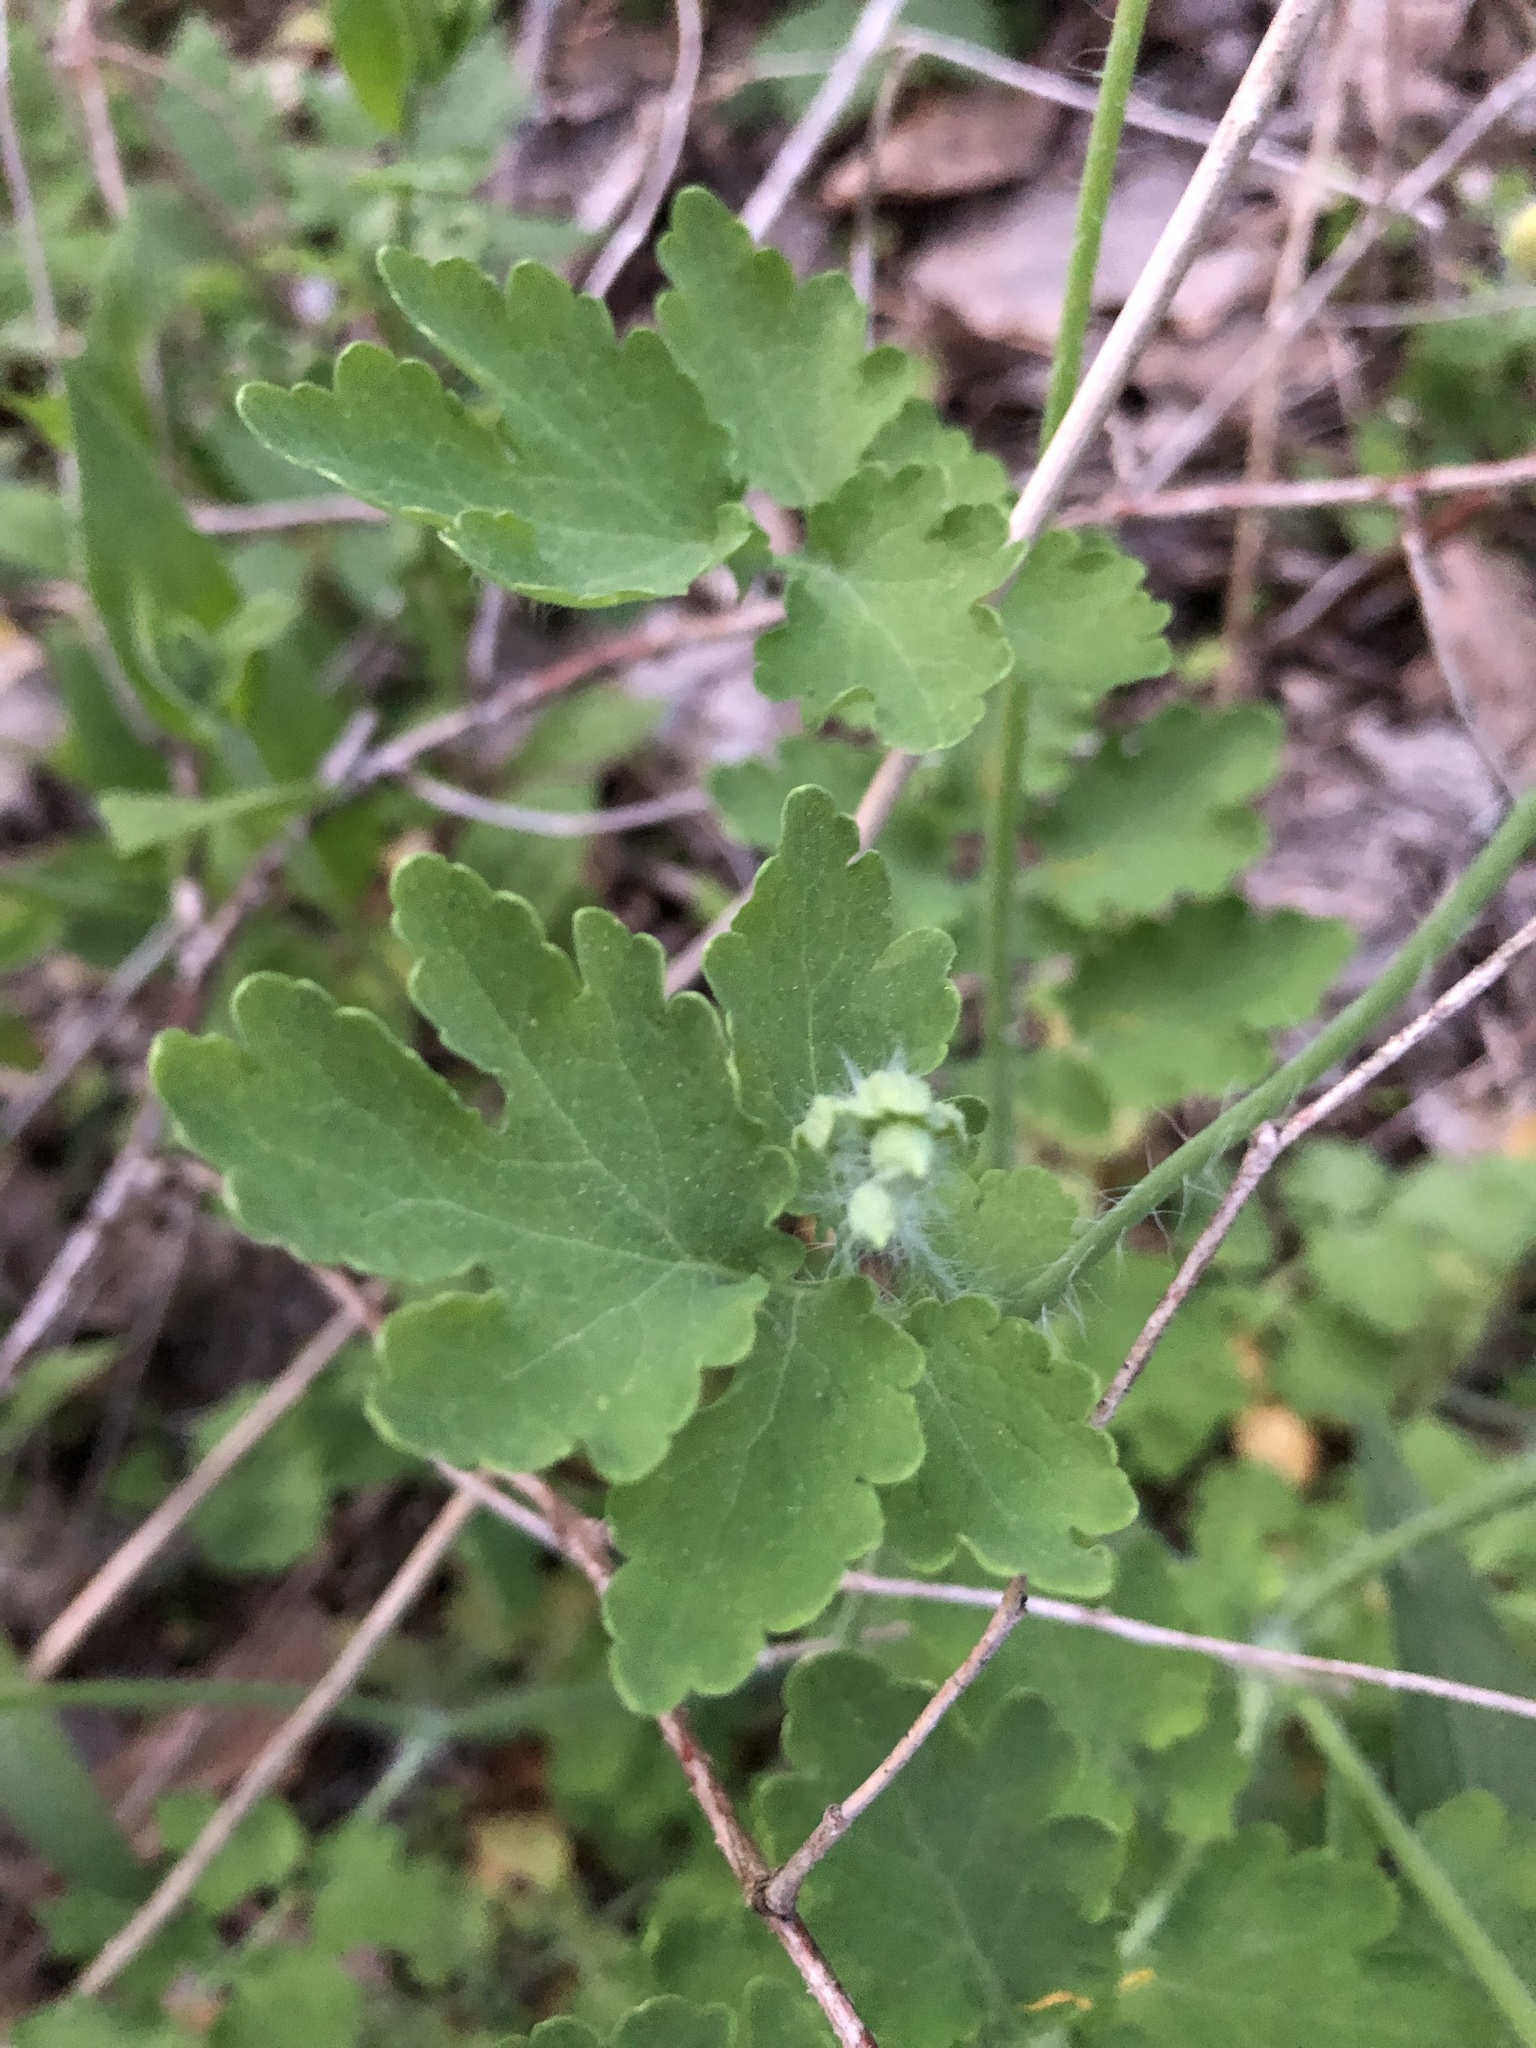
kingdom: Plantae
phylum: Tracheophyta
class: Magnoliopsida
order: Ranunculales
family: Papaveraceae
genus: Chelidonium
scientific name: Chelidonium majus
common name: Greater celandine
